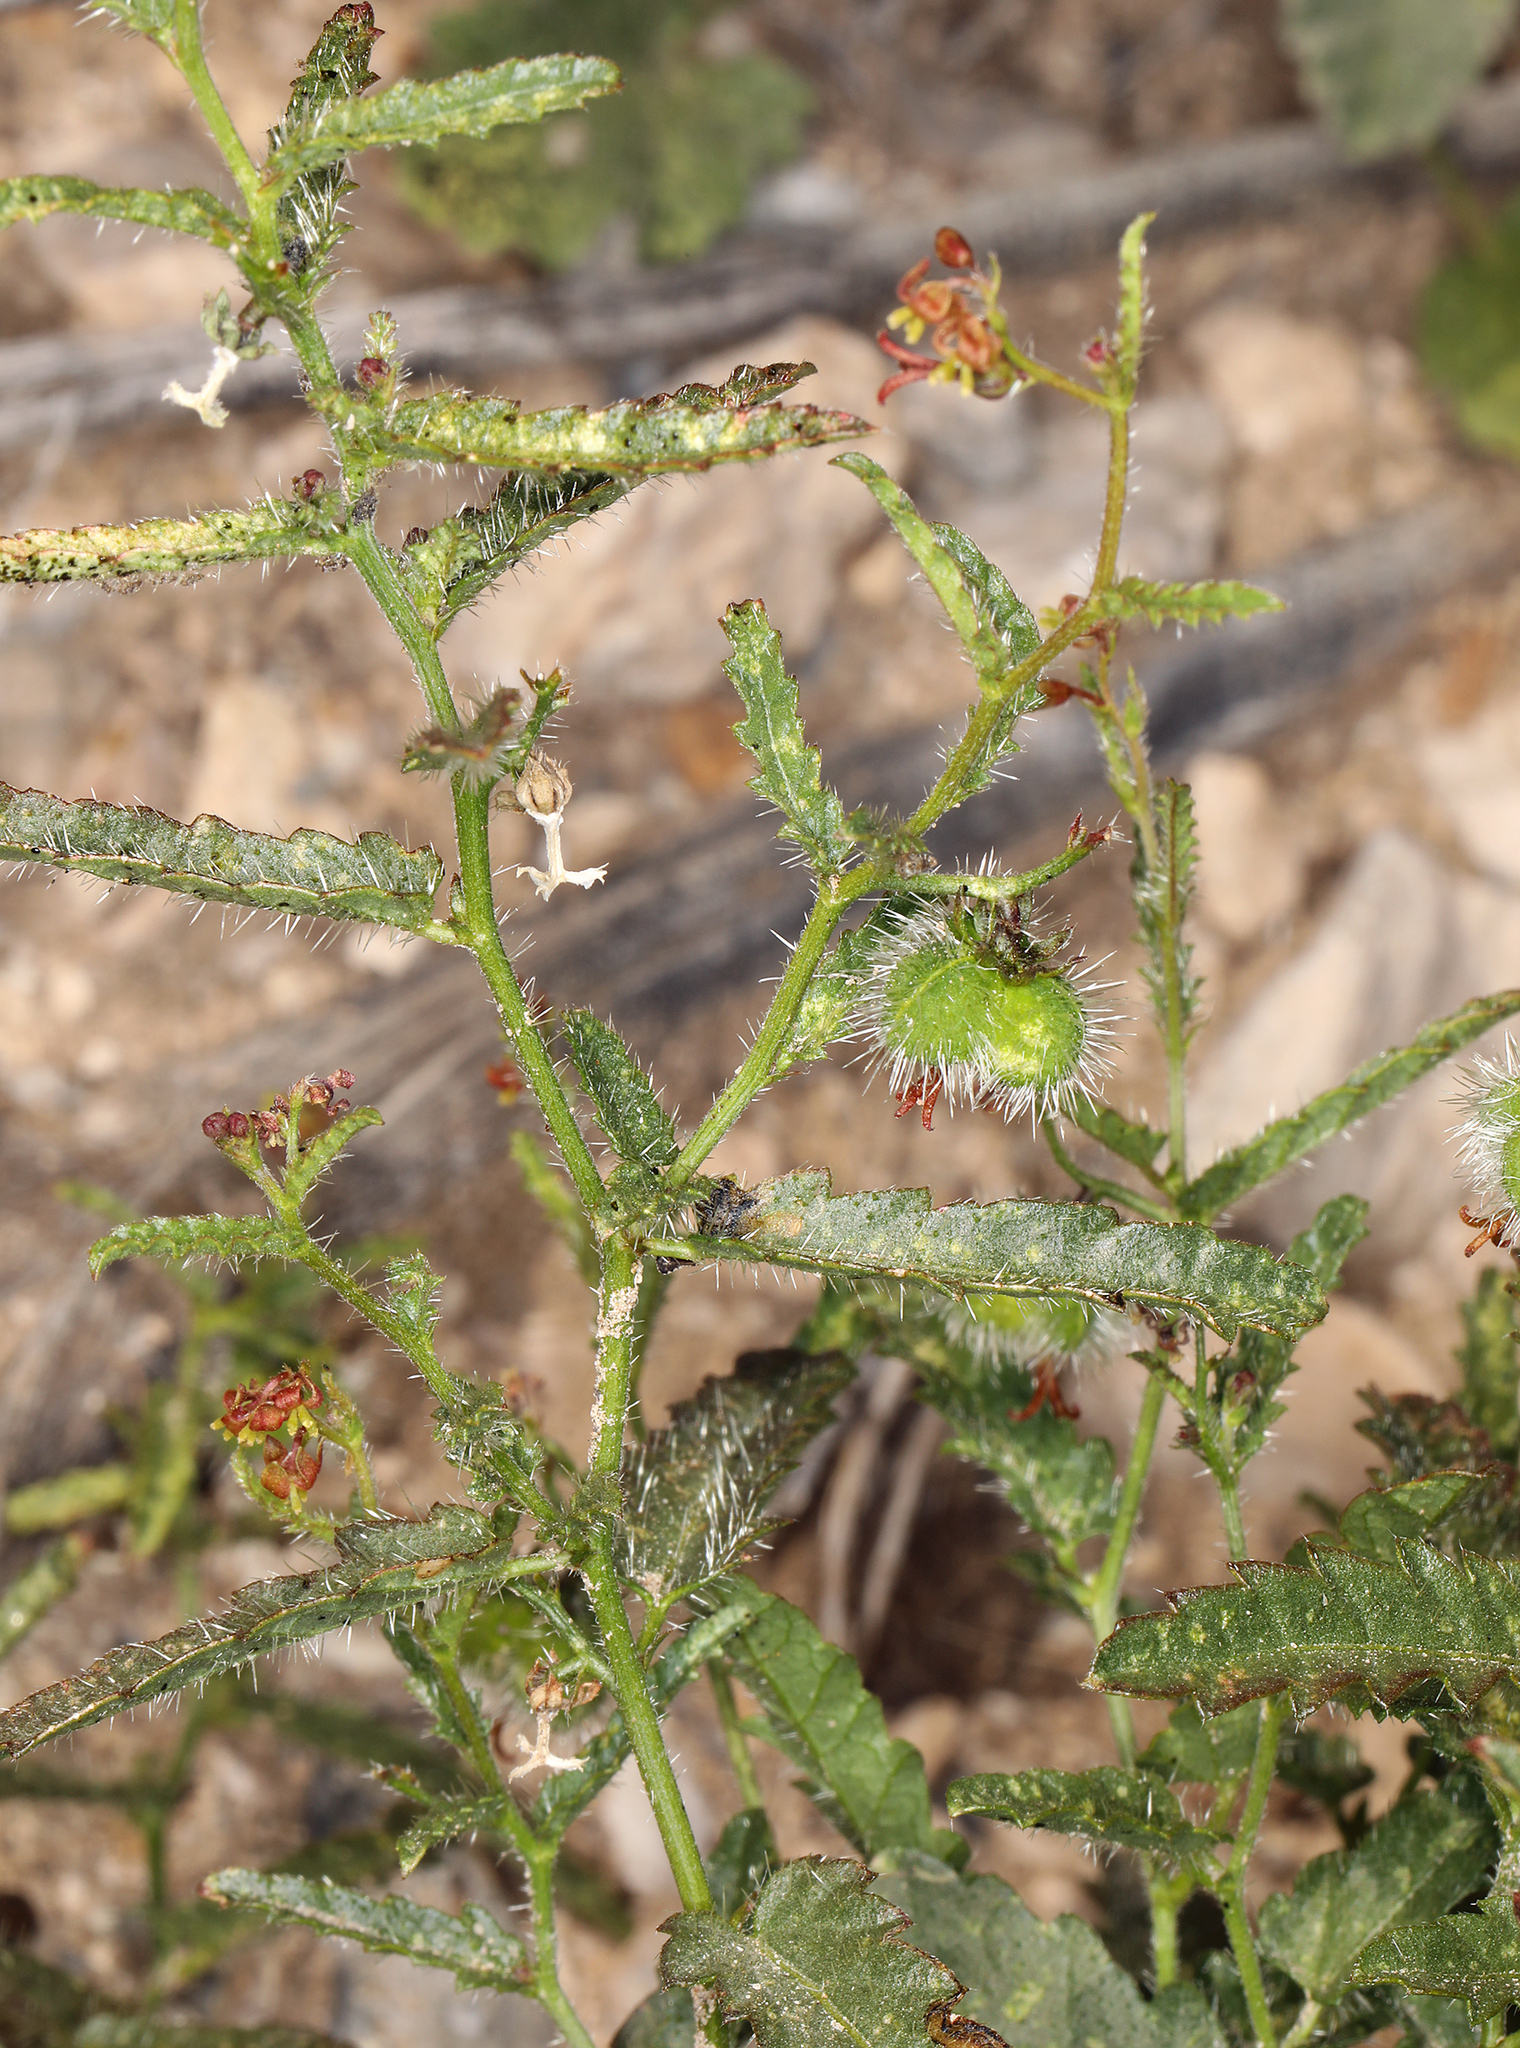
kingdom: Plantae
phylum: Tracheophyta
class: Magnoliopsida
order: Malpighiales
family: Euphorbiaceae
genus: Tragia
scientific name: Tragia ramosa
